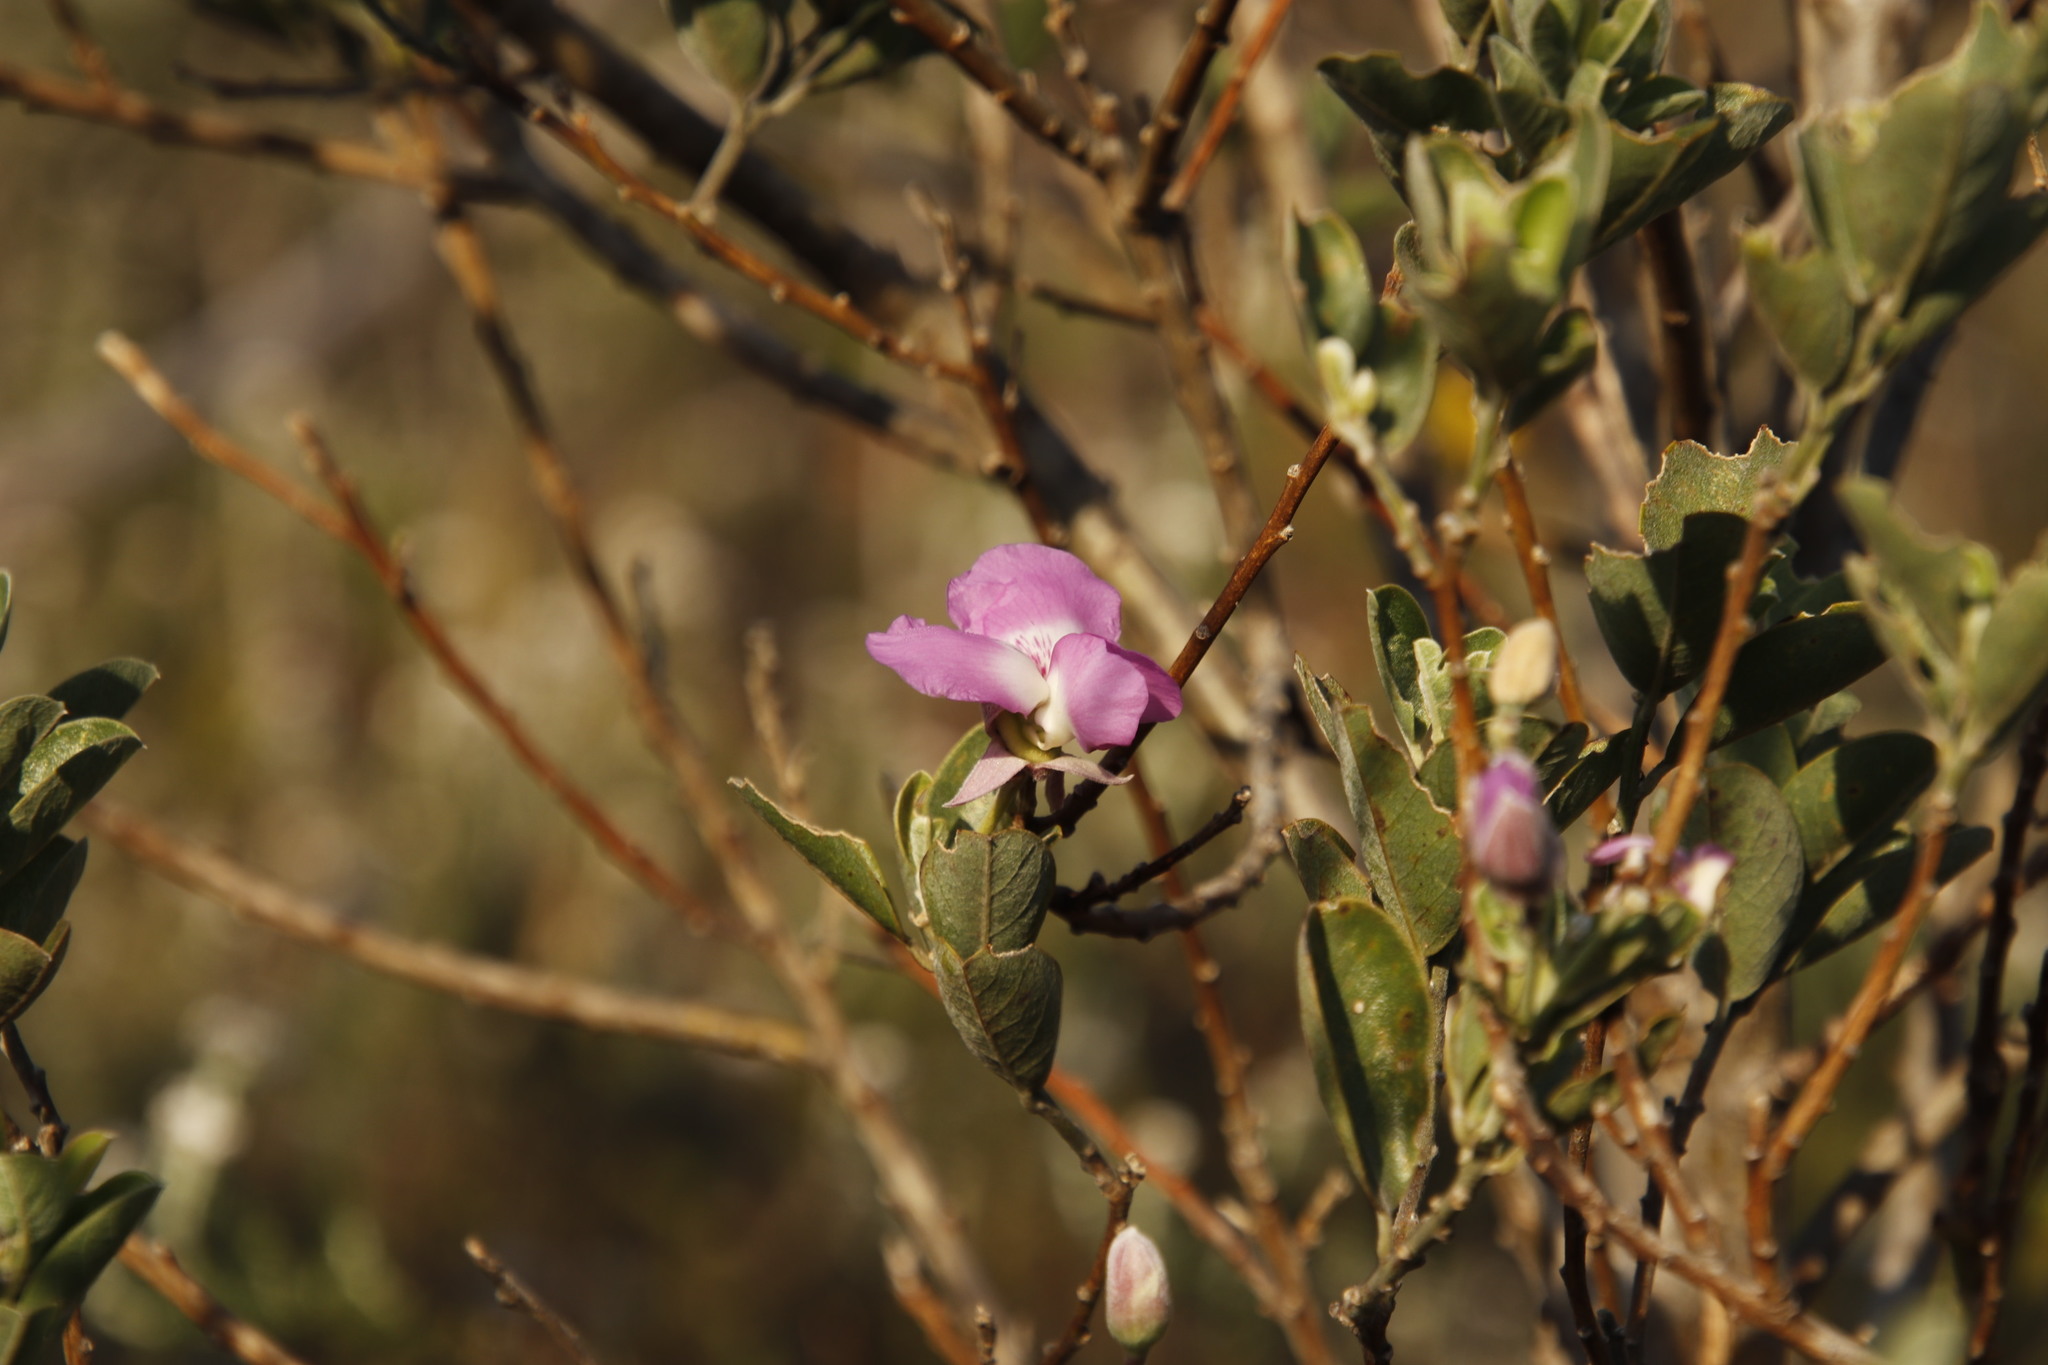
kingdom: Plantae
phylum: Tracheophyta
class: Magnoliopsida
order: Fabales
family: Fabaceae
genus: Podalyria
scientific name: Podalyria calyptrata
